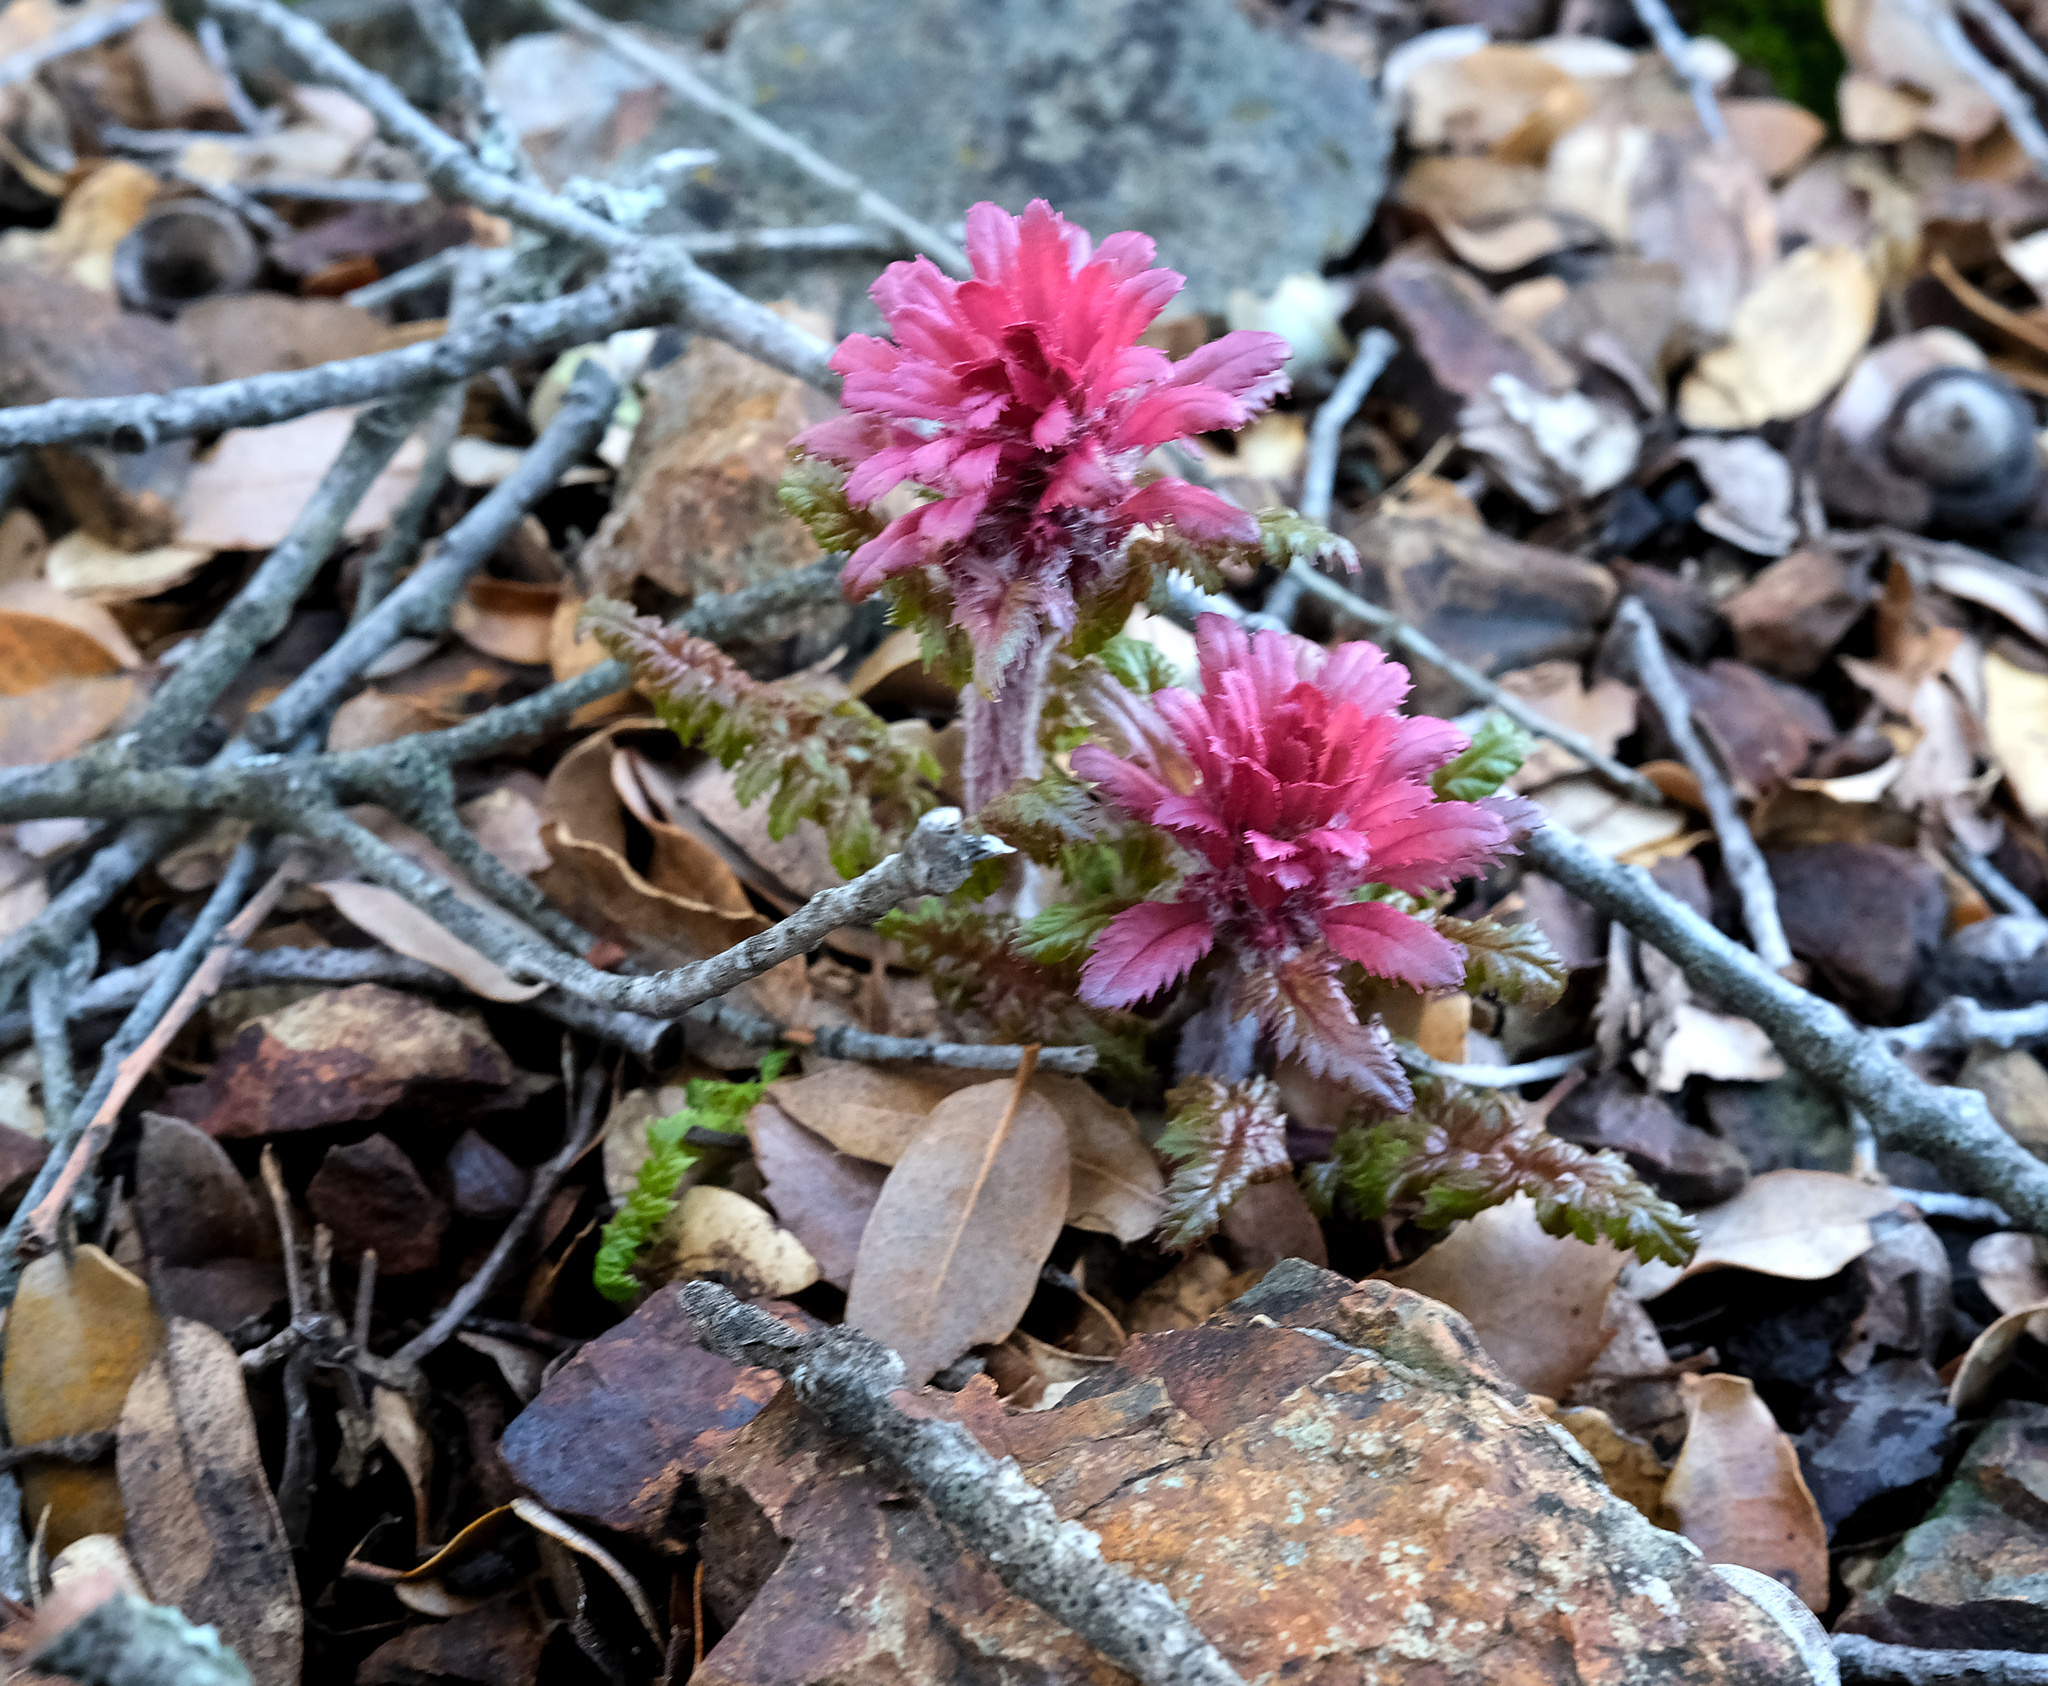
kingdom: Plantae
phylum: Tracheophyta
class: Magnoliopsida
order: Lamiales
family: Orobanchaceae
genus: Pedicularis
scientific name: Pedicularis densiflora
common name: Indian warrior
